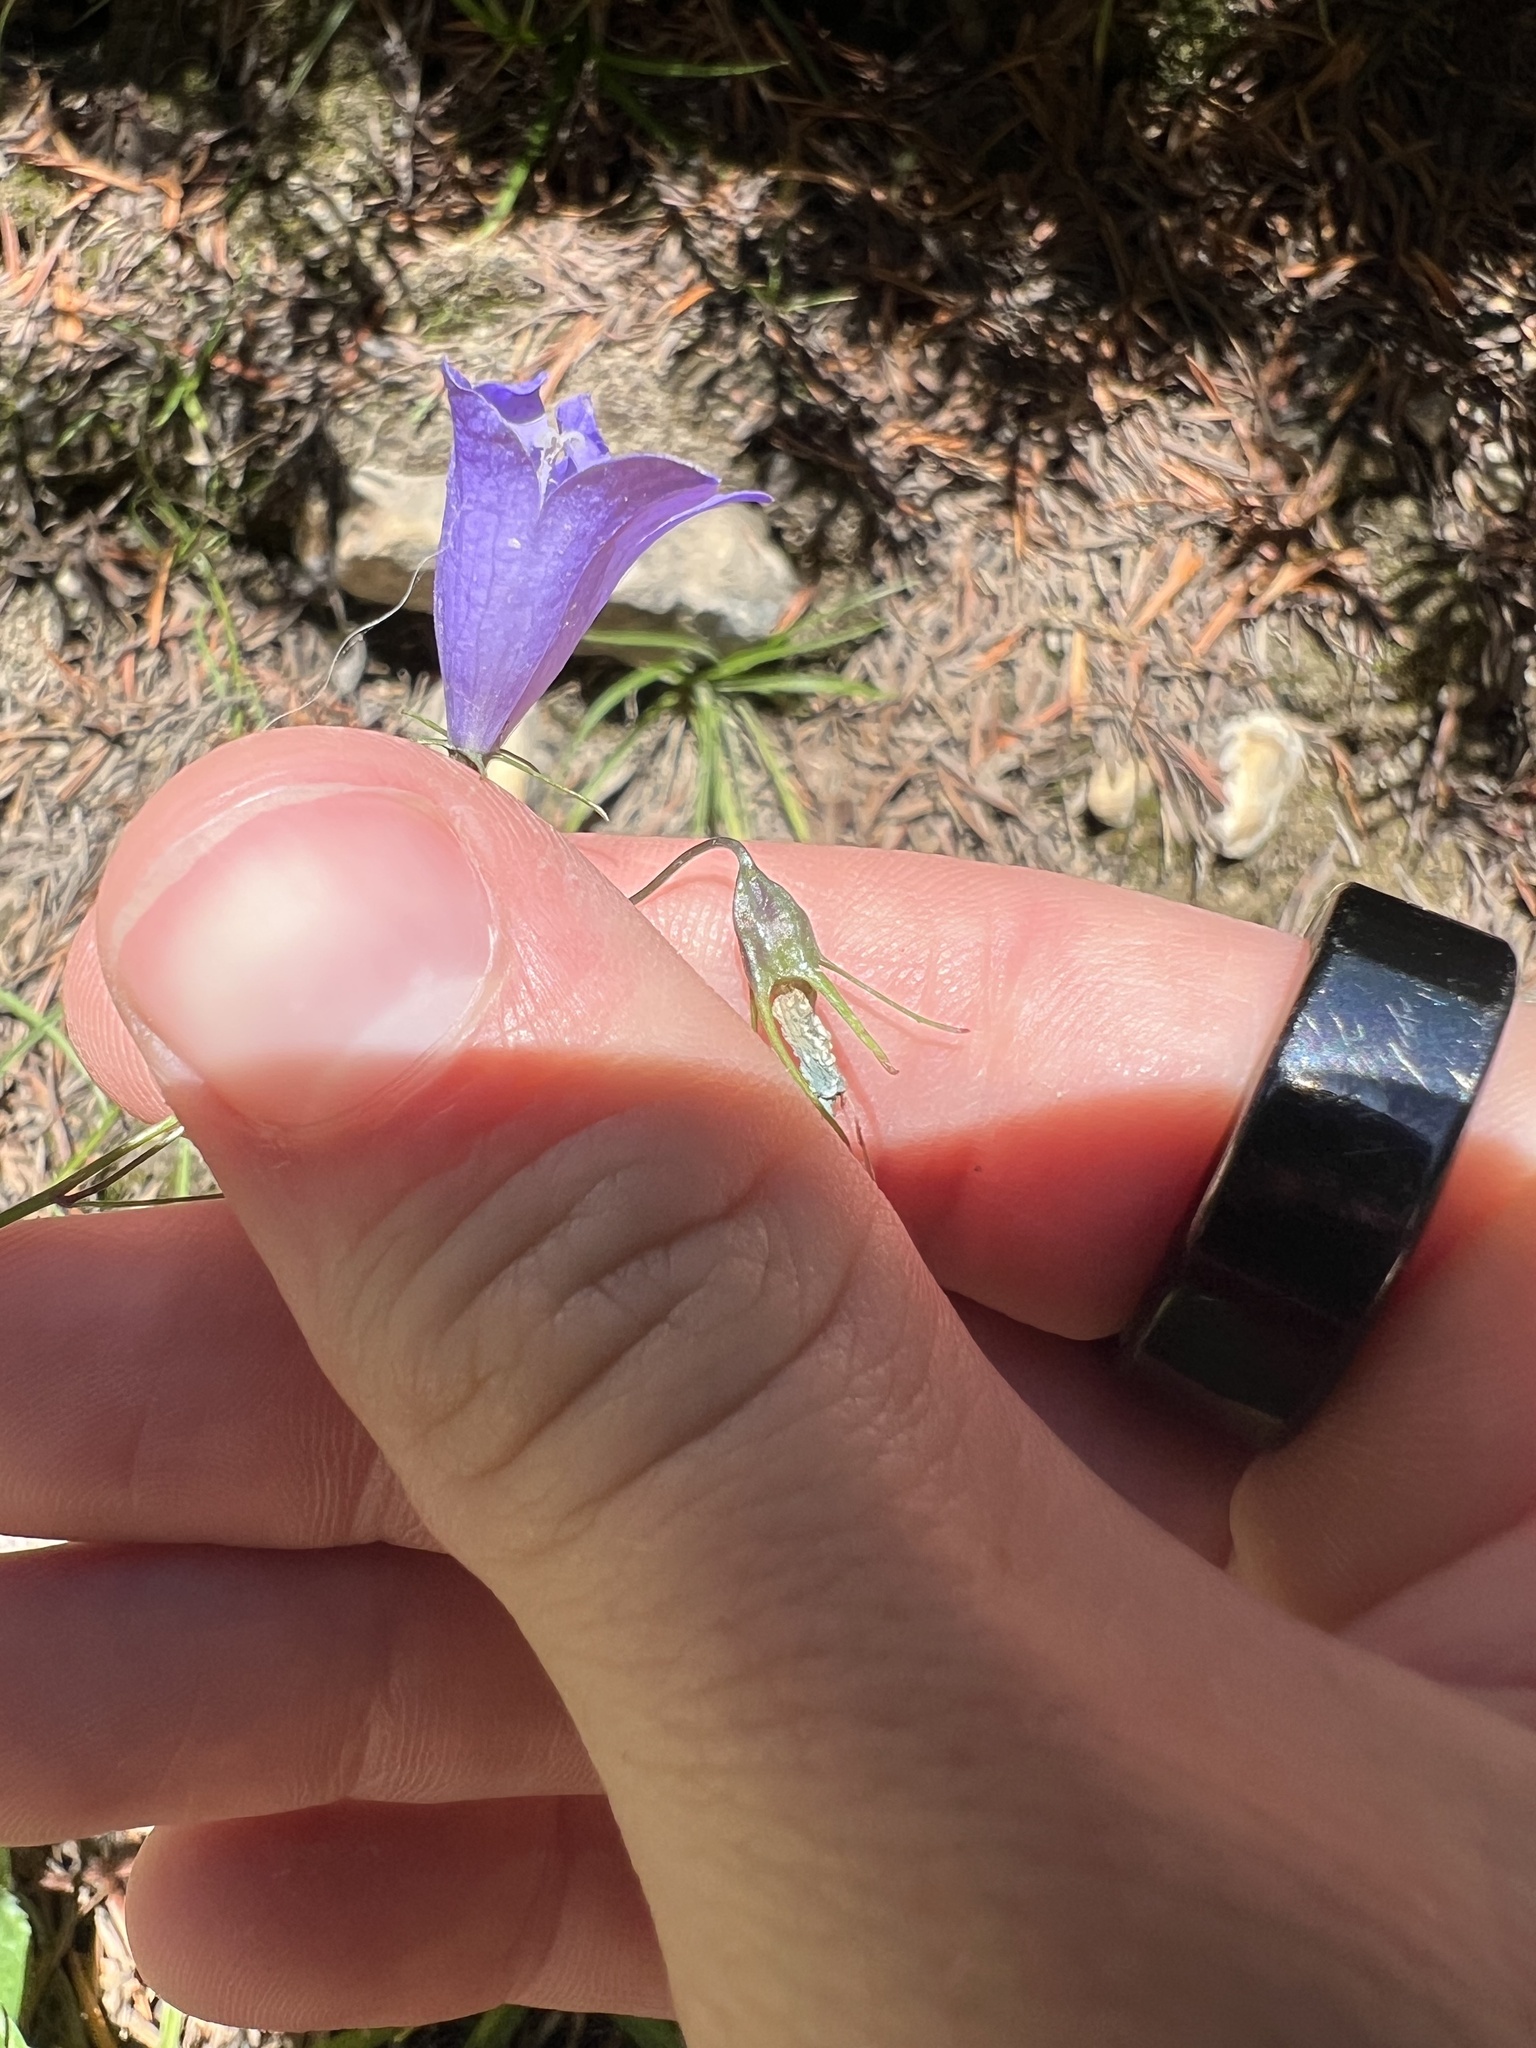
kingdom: Plantae
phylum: Tracheophyta
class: Magnoliopsida
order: Asterales
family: Campanulaceae
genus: Campanula
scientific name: Campanula alaskana
